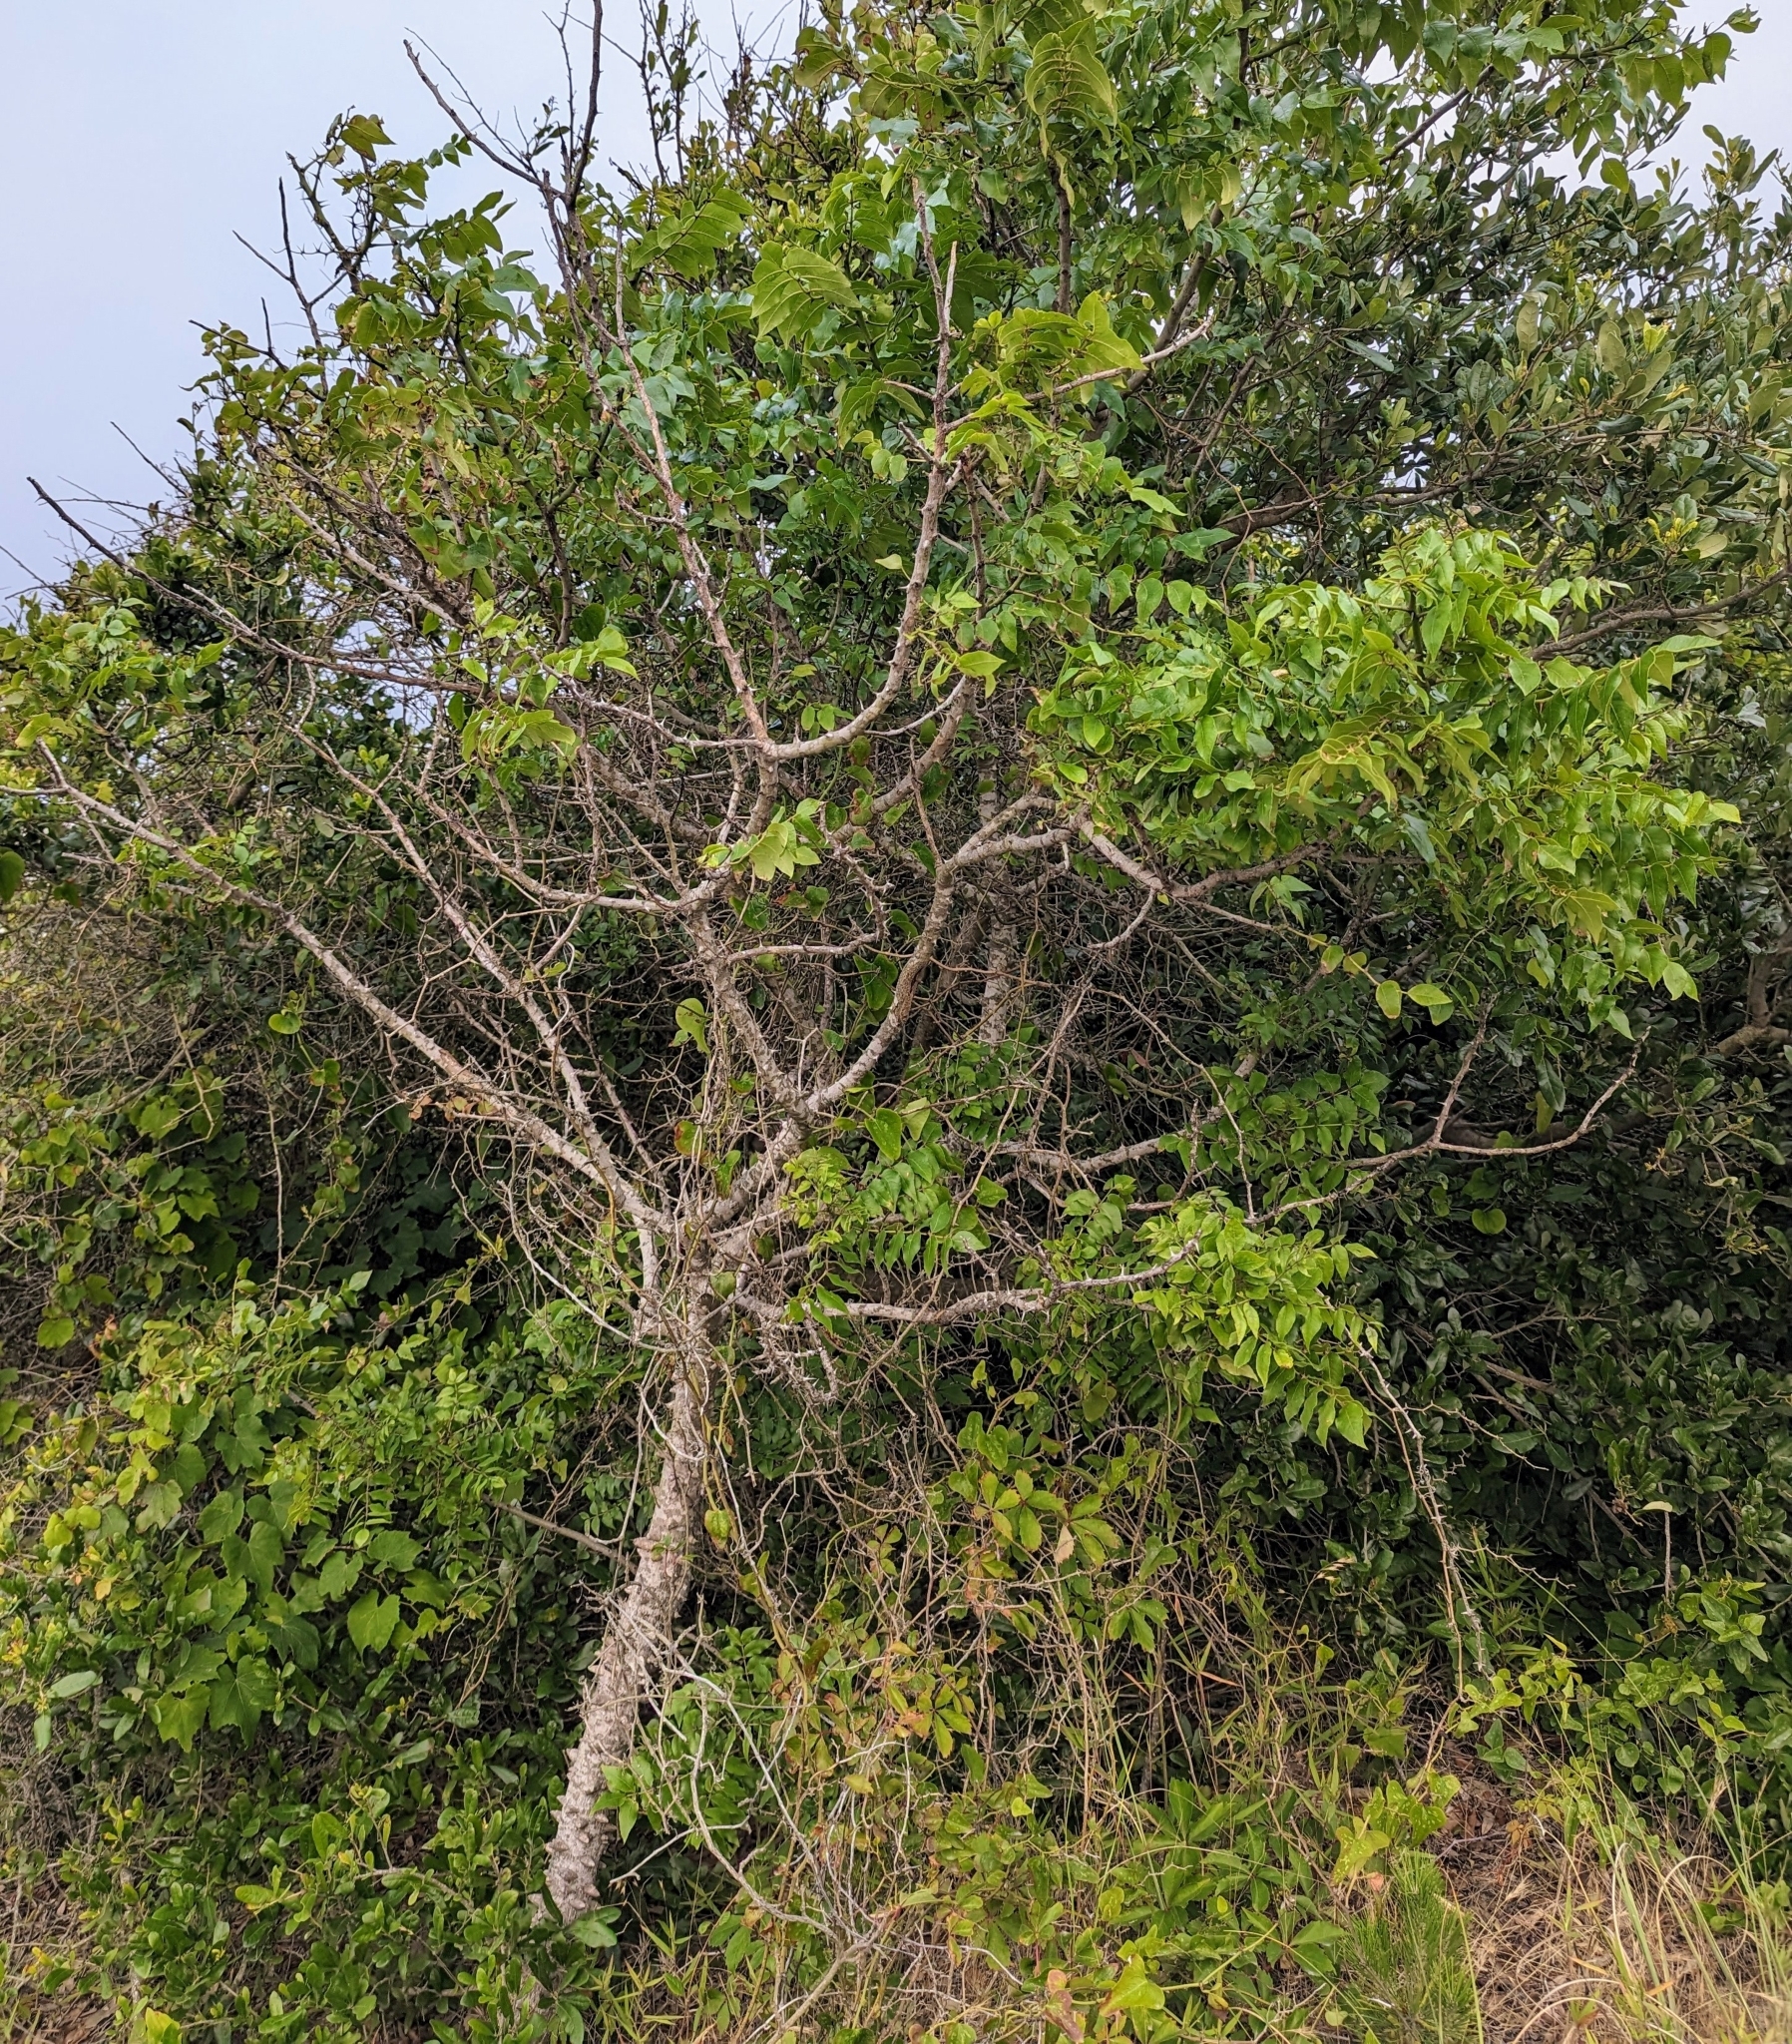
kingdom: Plantae
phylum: Tracheophyta
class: Magnoliopsida
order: Sapindales
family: Rutaceae
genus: Zanthoxylum
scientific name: Zanthoxylum clava-herculis
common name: Hercules'-club
